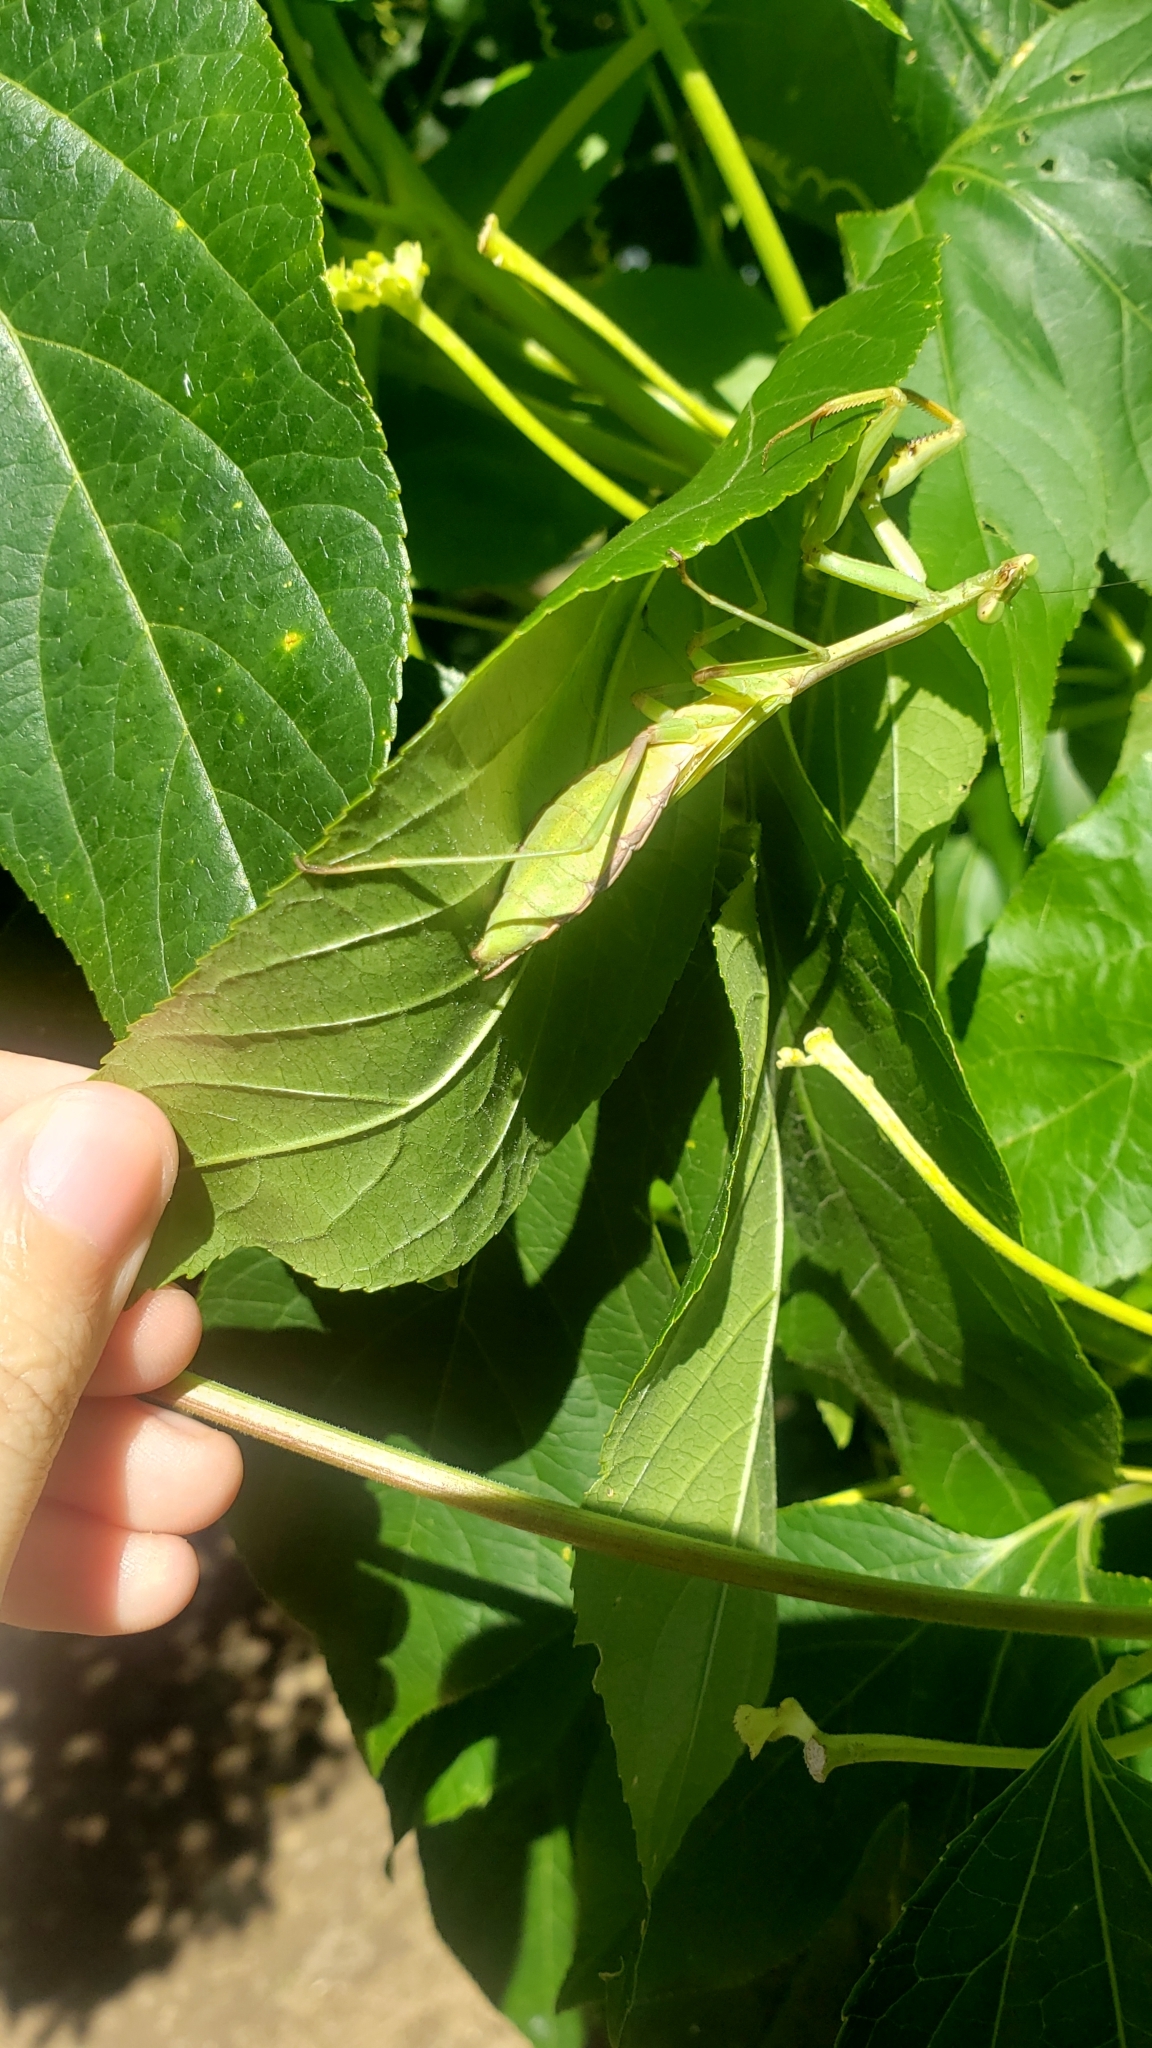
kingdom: Animalia
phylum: Arthropoda
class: Insecta
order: Mantodea
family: Mantidae
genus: Stagmomantis
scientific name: Stagmomantis carolina
